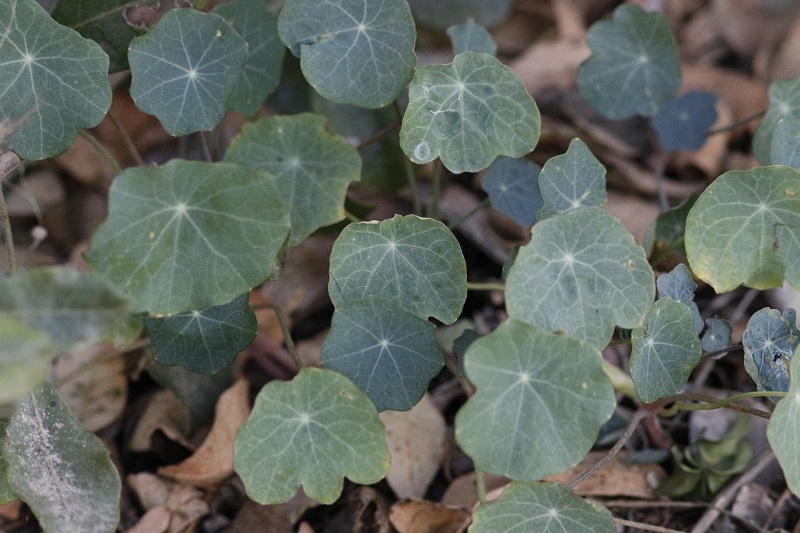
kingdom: Plantae
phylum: Tracheophyta
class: Magnoliopsida
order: Brassicales
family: Tropaeolaceae
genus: Tropaeolum
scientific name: Tropaeolum majus
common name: Nasturtium
